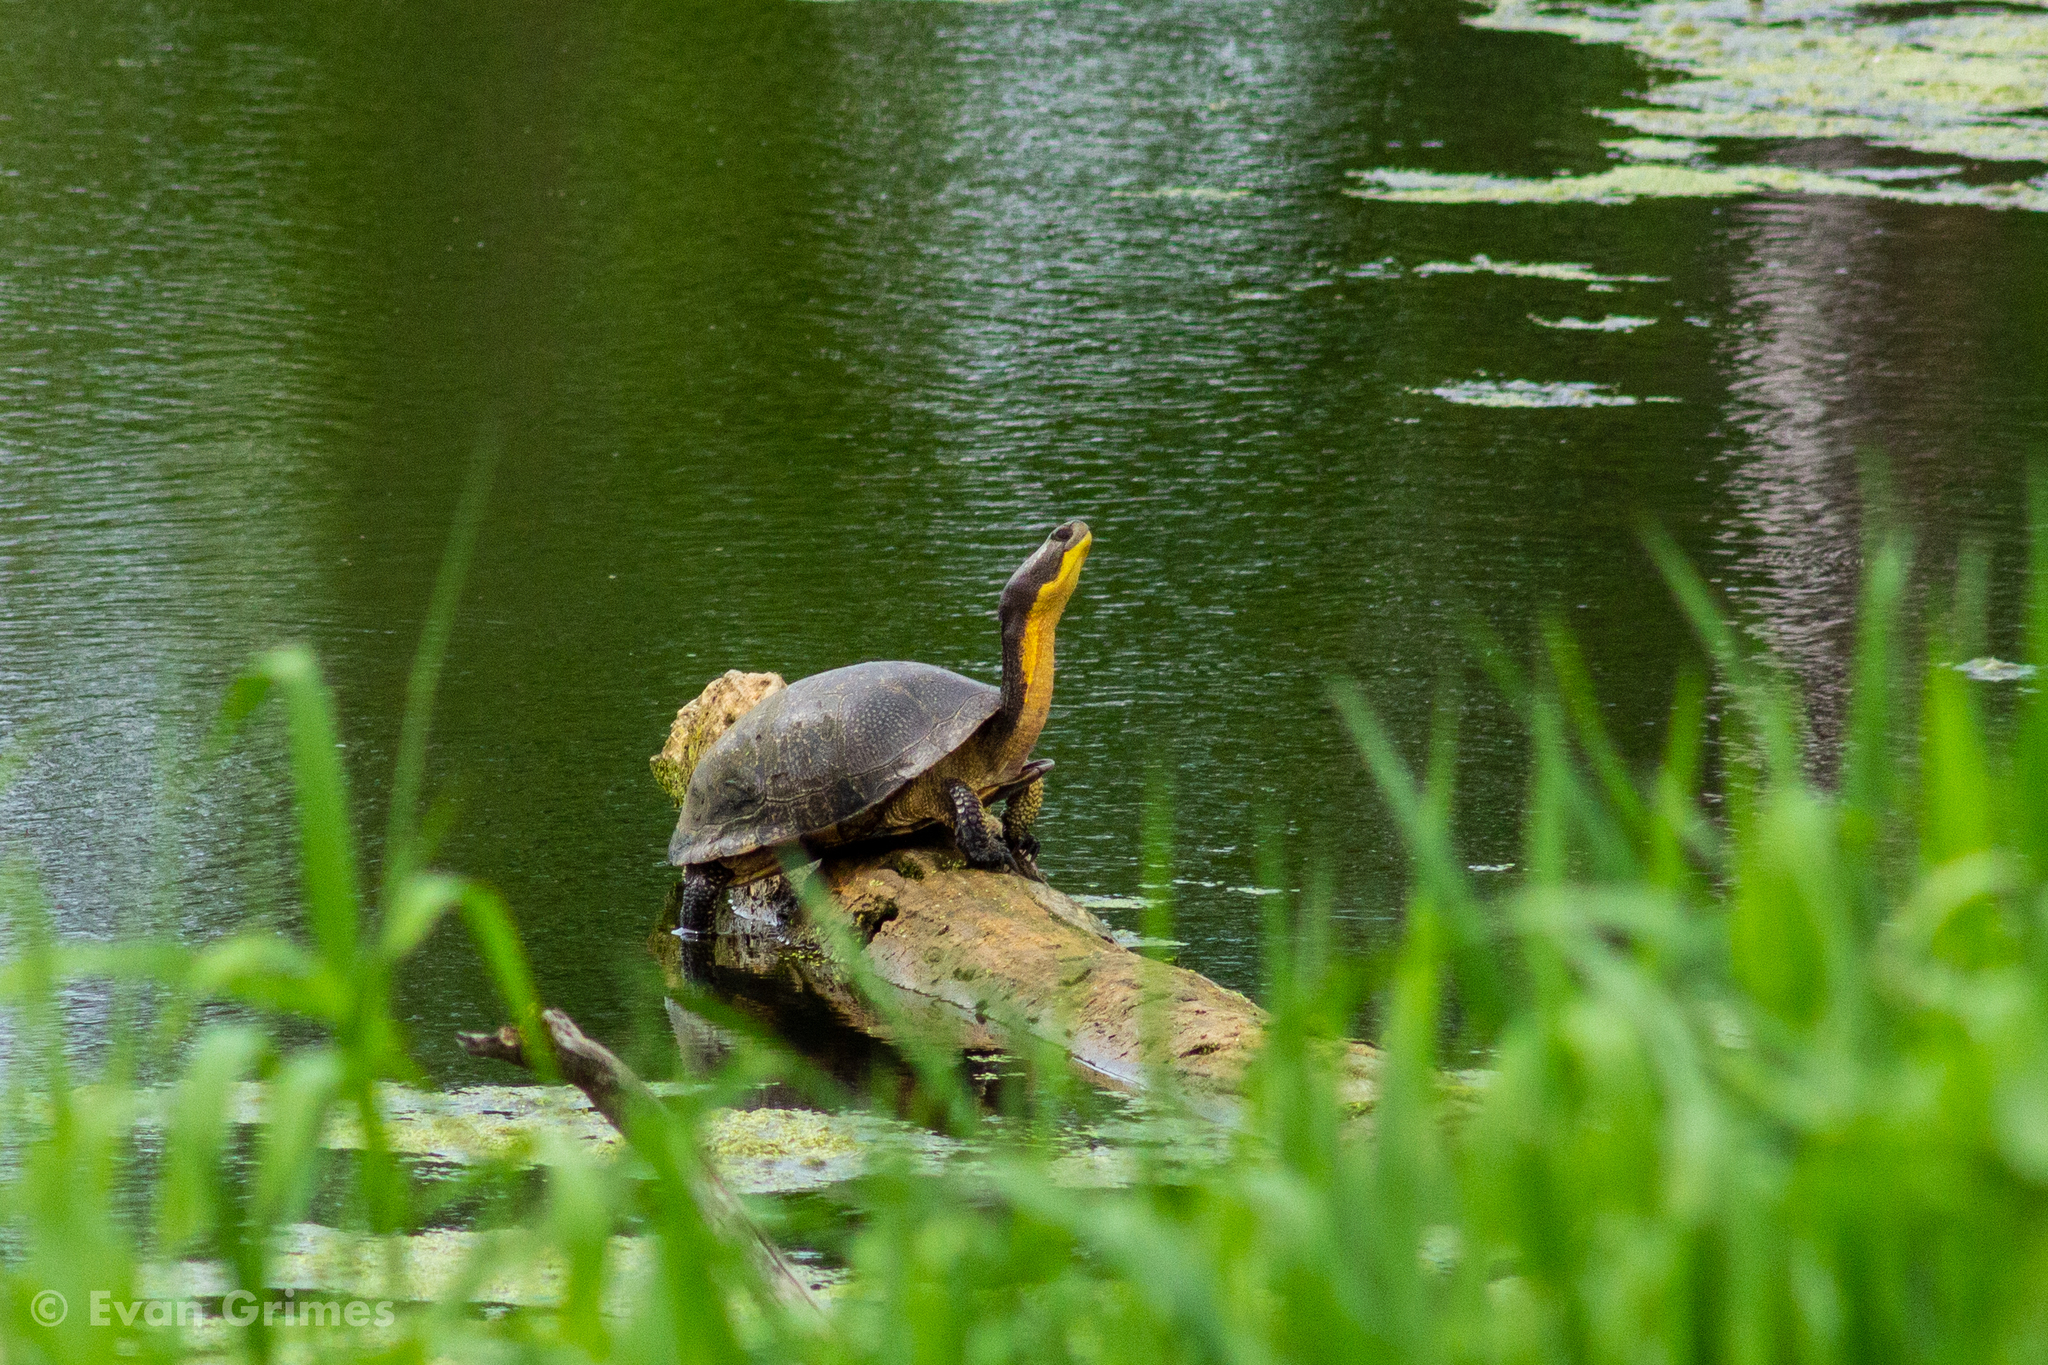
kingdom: Animalia
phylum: Chordata
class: Testudines
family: Emydidae
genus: Emys
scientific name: Emys blandingii
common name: Blanding's turtle
